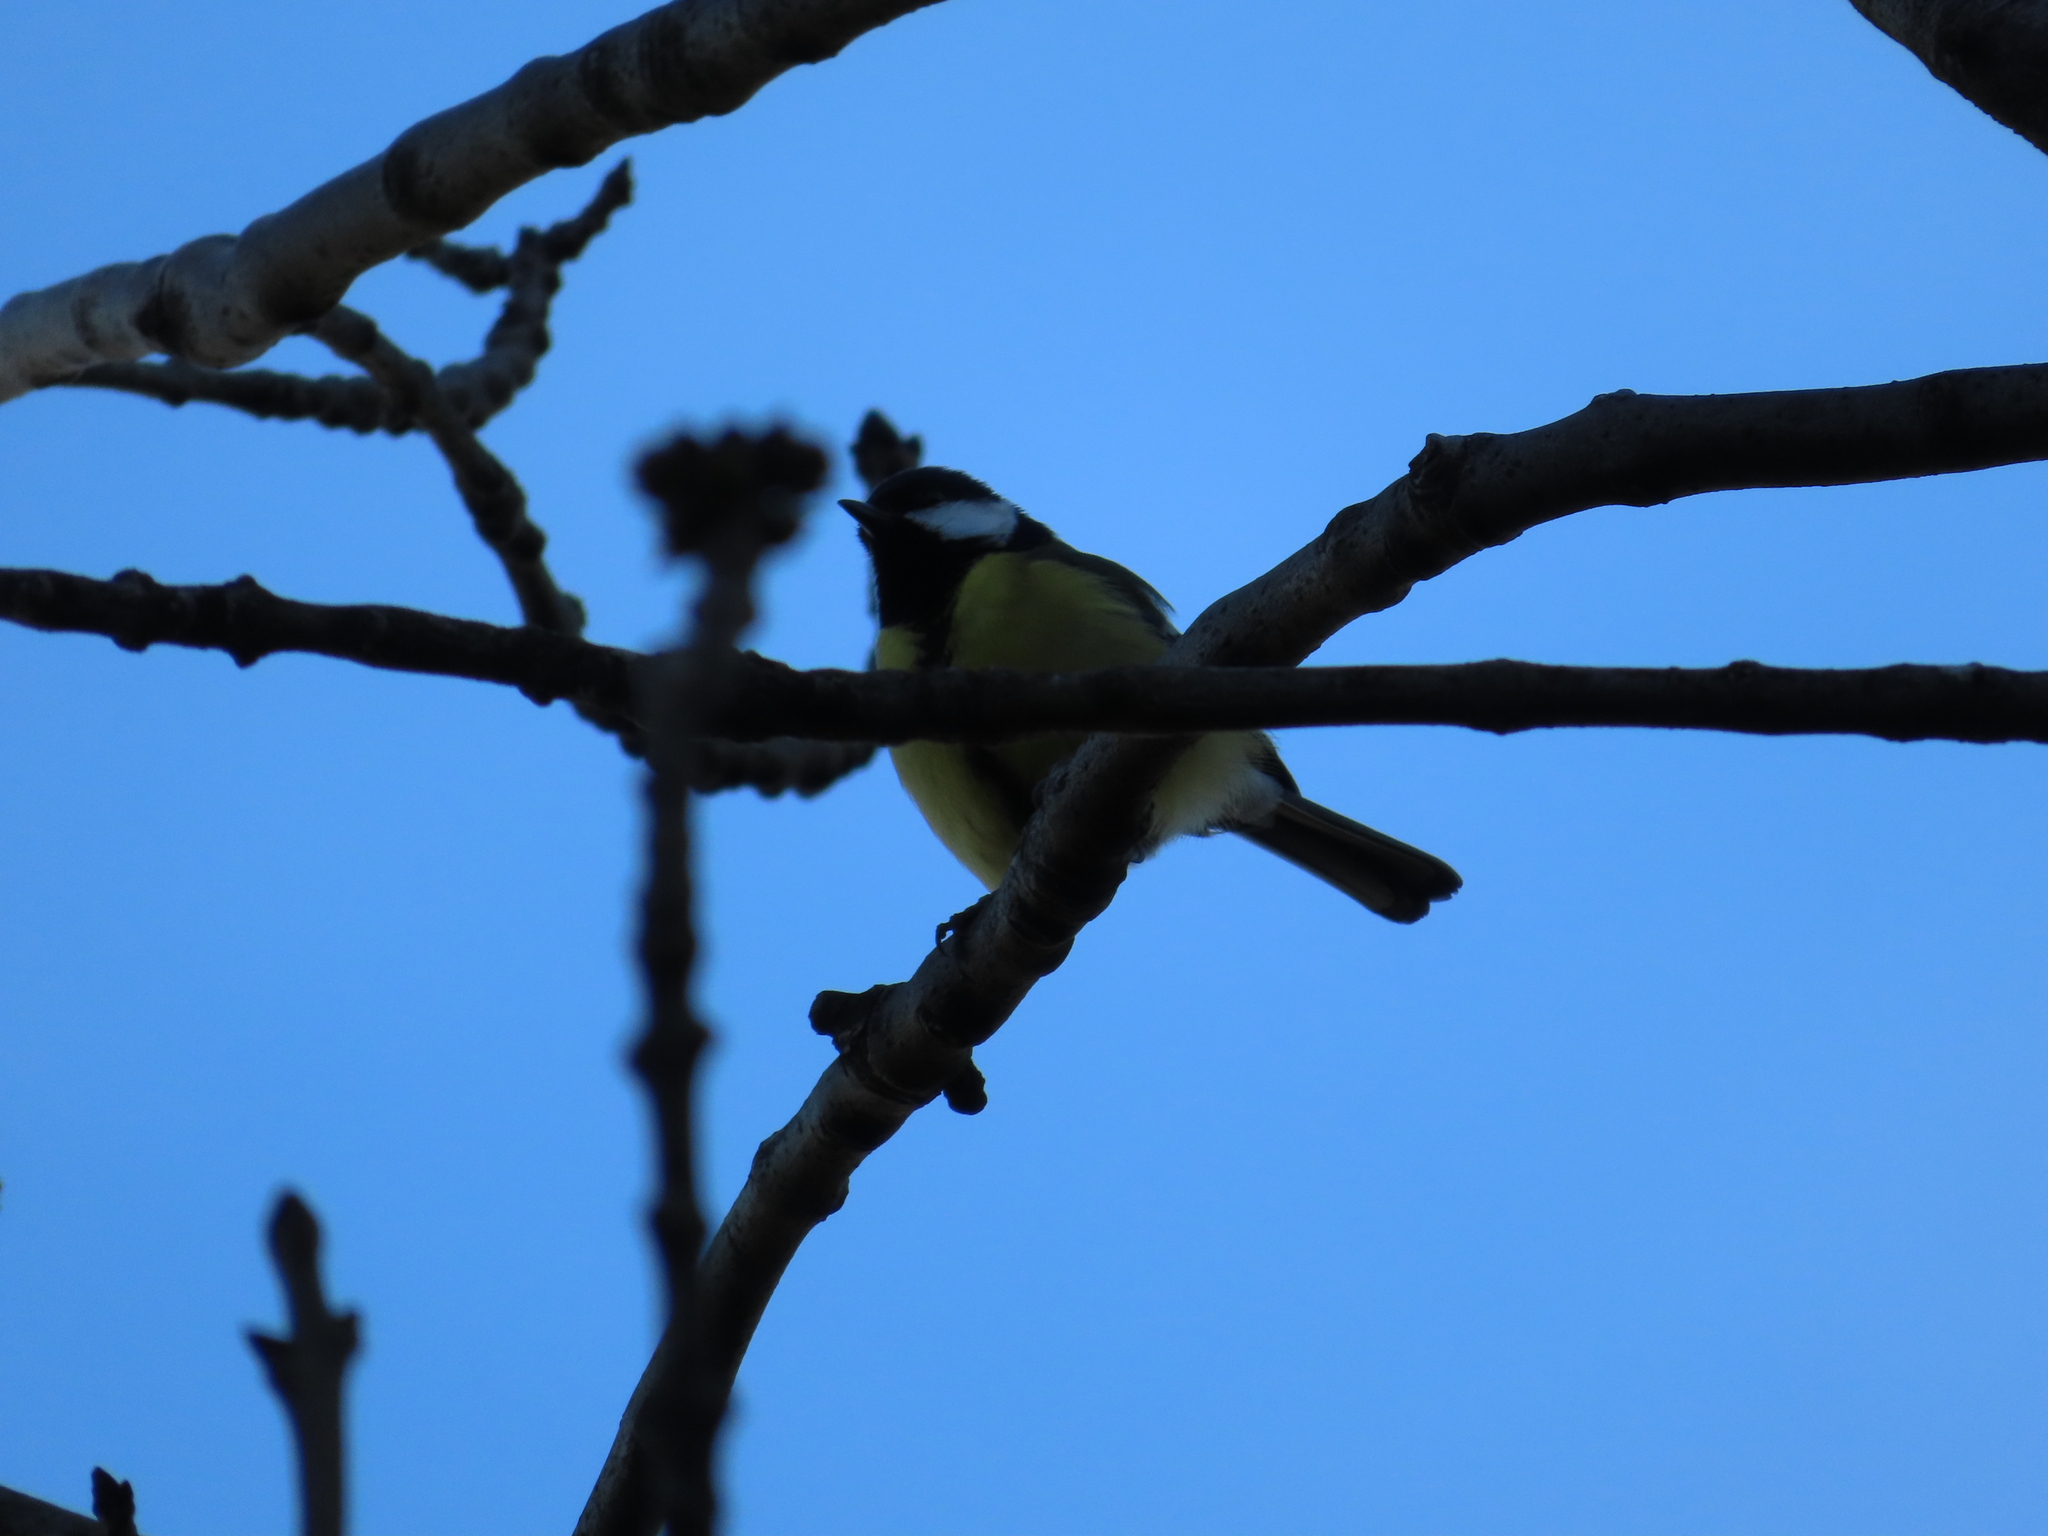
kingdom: Animalia
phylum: Chordata
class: Aves
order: Passeriformes
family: Paridae
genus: Parus
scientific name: Parus major
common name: Great tit
